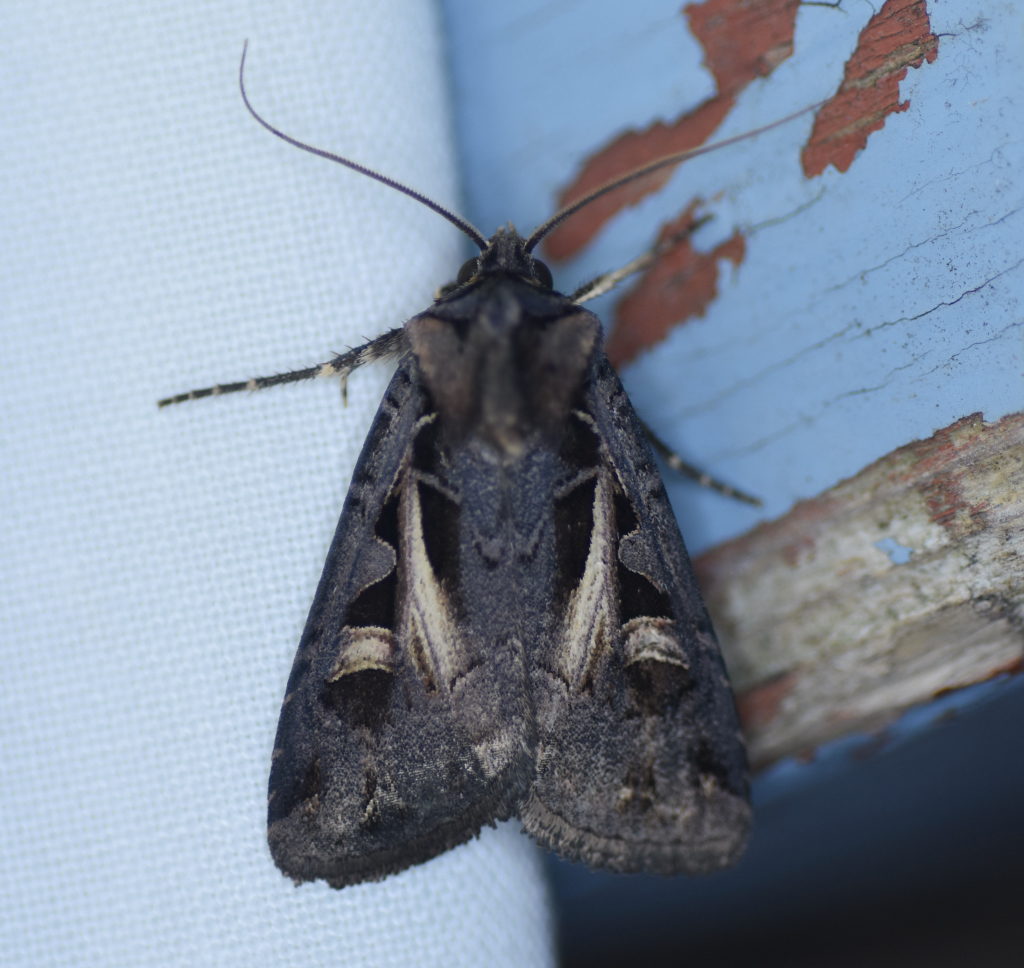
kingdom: Animalia
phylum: Arthropoda
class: Insecta
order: Lepidoptera
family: Noctuidae
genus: Feltia
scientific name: Feltia herilis
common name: Master's dart
